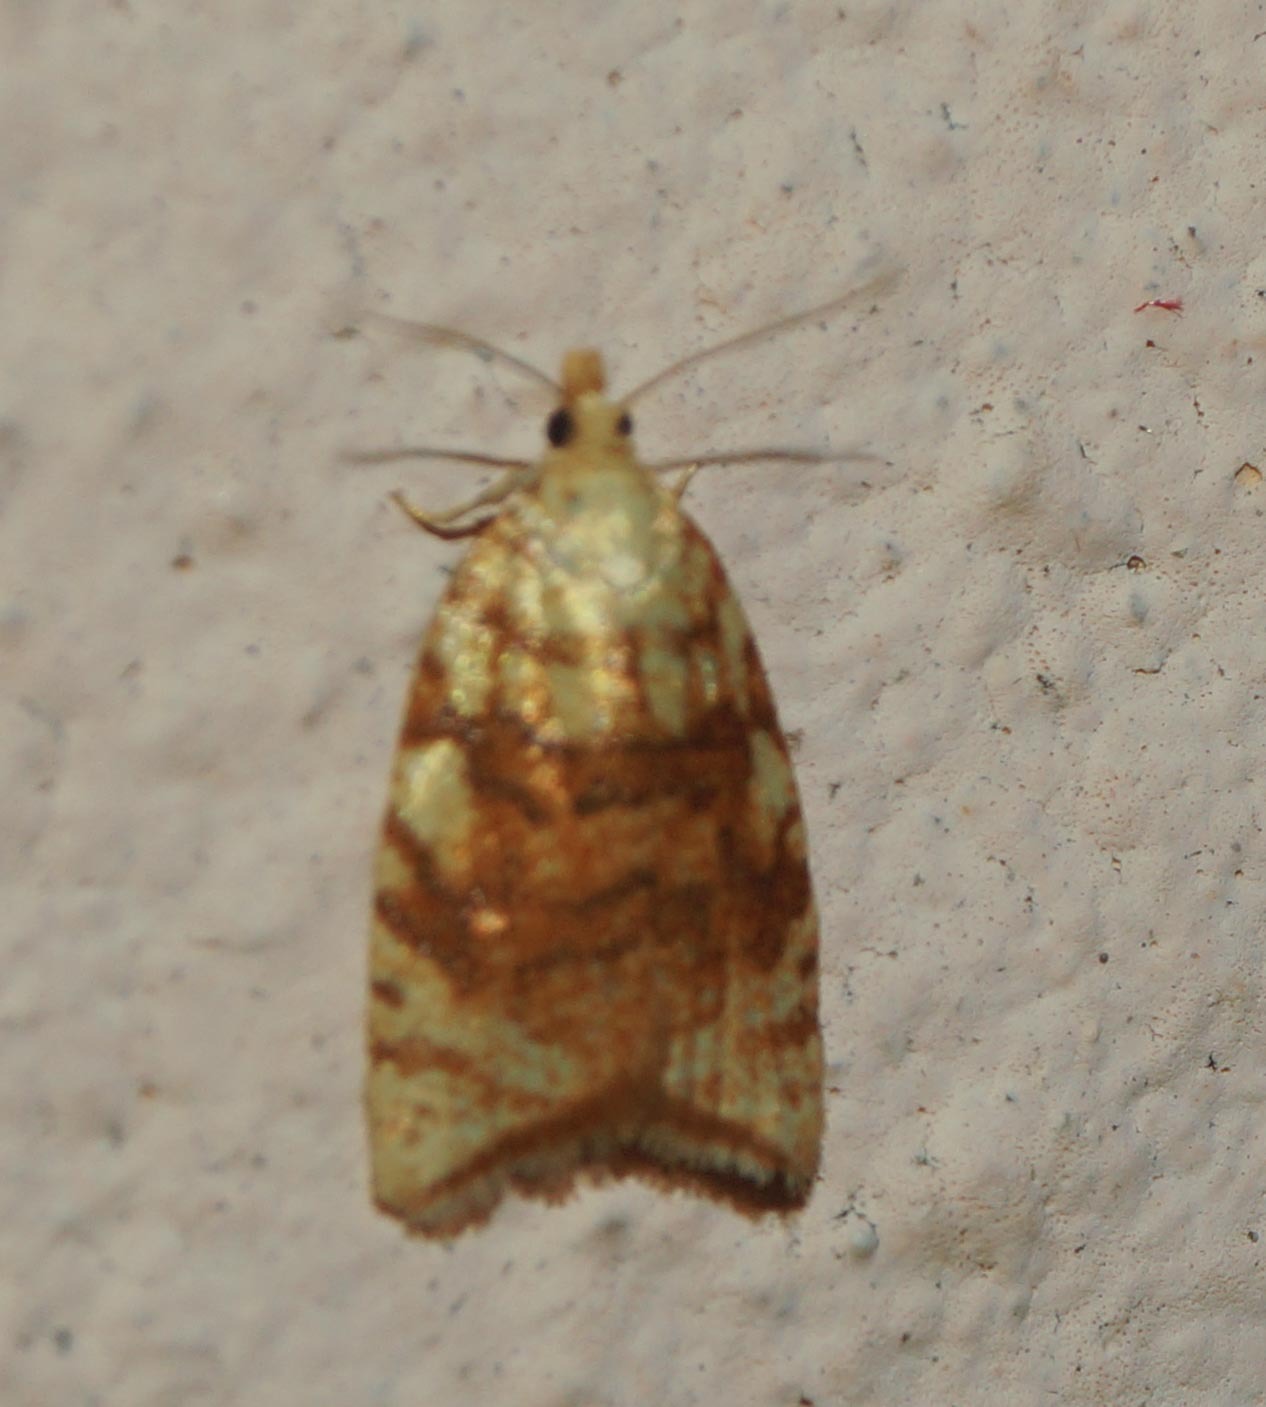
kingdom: Animalia
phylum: Arthropoda
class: Insecta
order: Lepidoptera
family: Tortricidae
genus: Aleimma
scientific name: Aleimma loeflingiana
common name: Yellow oak button
